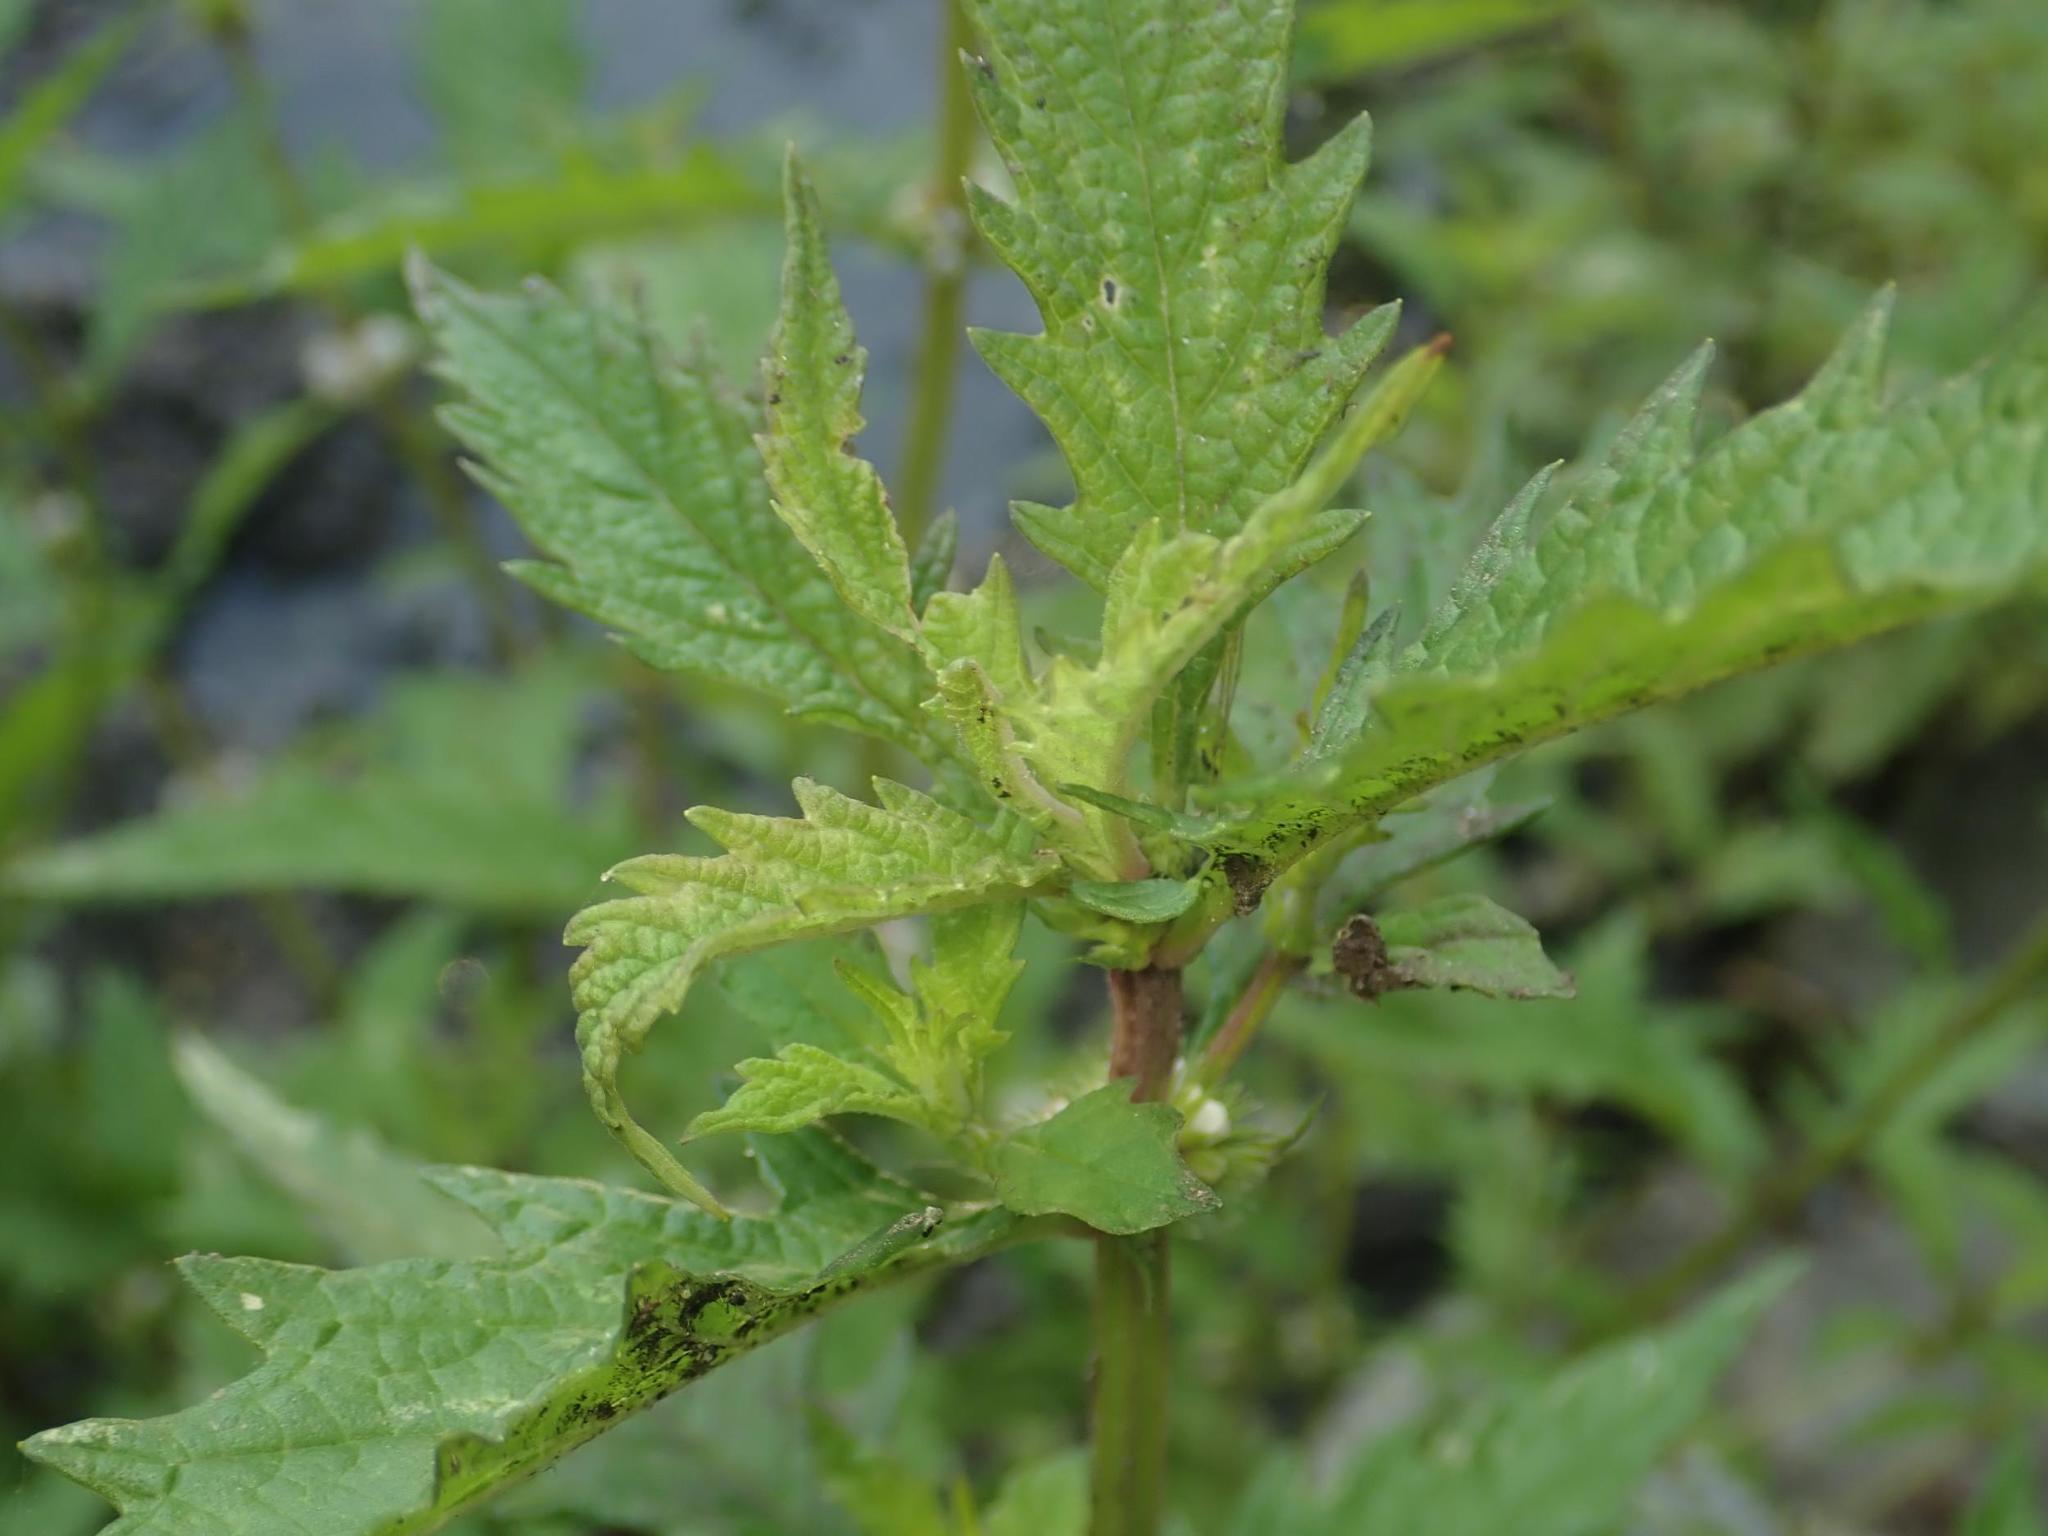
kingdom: Plantae
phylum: Tracheophyta
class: Magnoliopsida
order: Lamiales
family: Lamiaceae
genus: Lycopus
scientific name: Lycopus europaeus
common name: European bugleweed
